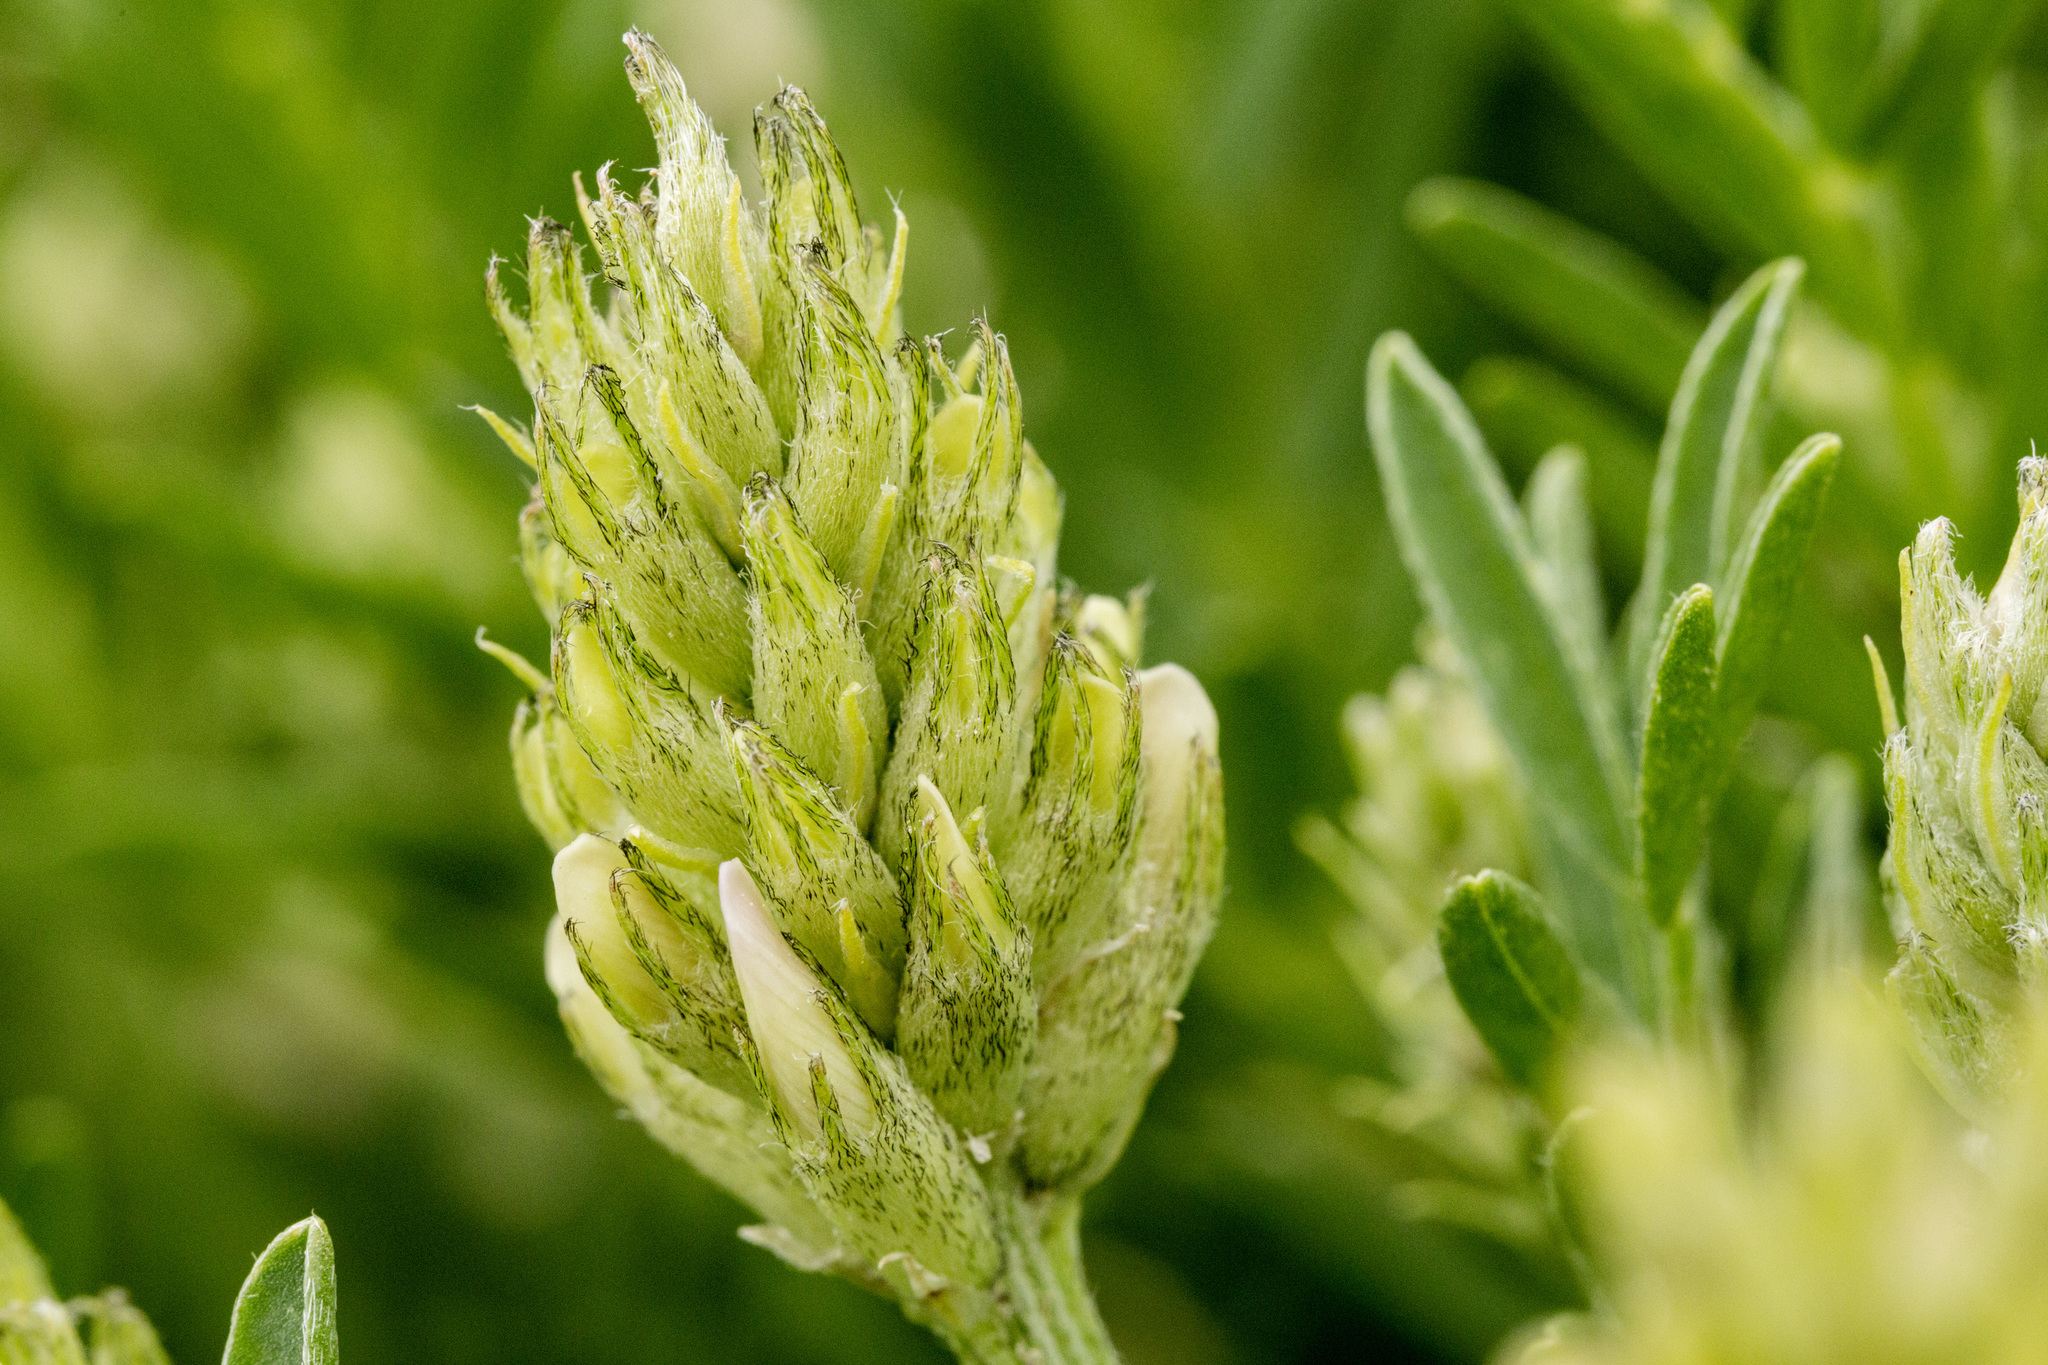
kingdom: Plantae
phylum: Tracheophyta
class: Magnoliopsida
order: Fabales
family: Fabaceae
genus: Astragalus
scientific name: Astragalus laxmannii
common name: Laxmann's milk-vetch
